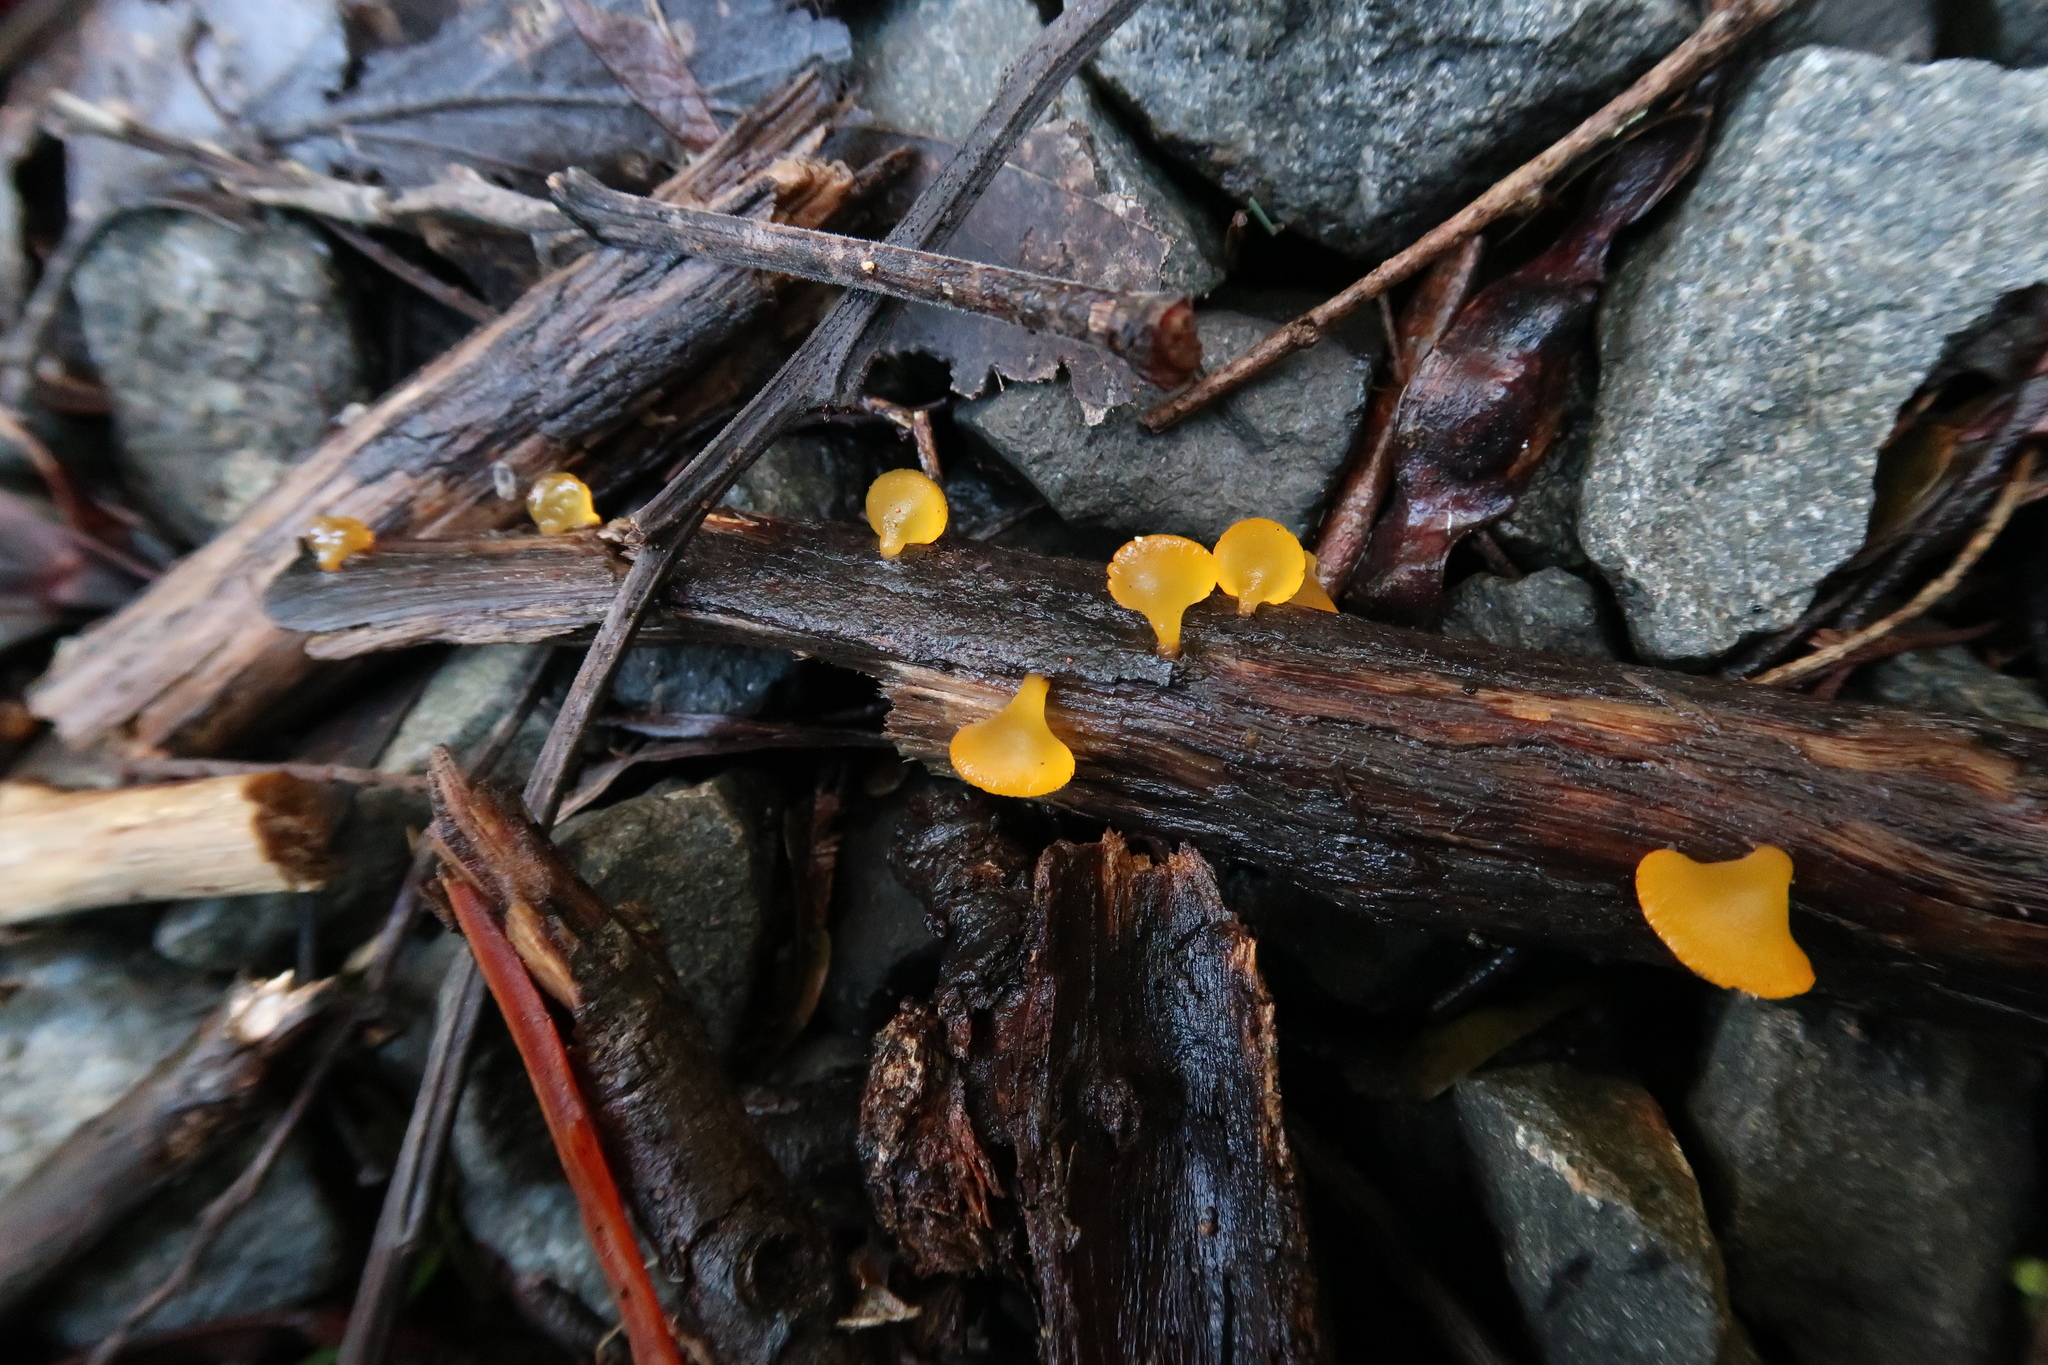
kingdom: Fungi
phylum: Basidiomycota
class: Dacrymycetes
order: Dacrymycetales
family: Dacrymycetaceae
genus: Heterotextus
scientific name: Heterotextus peziziformis
